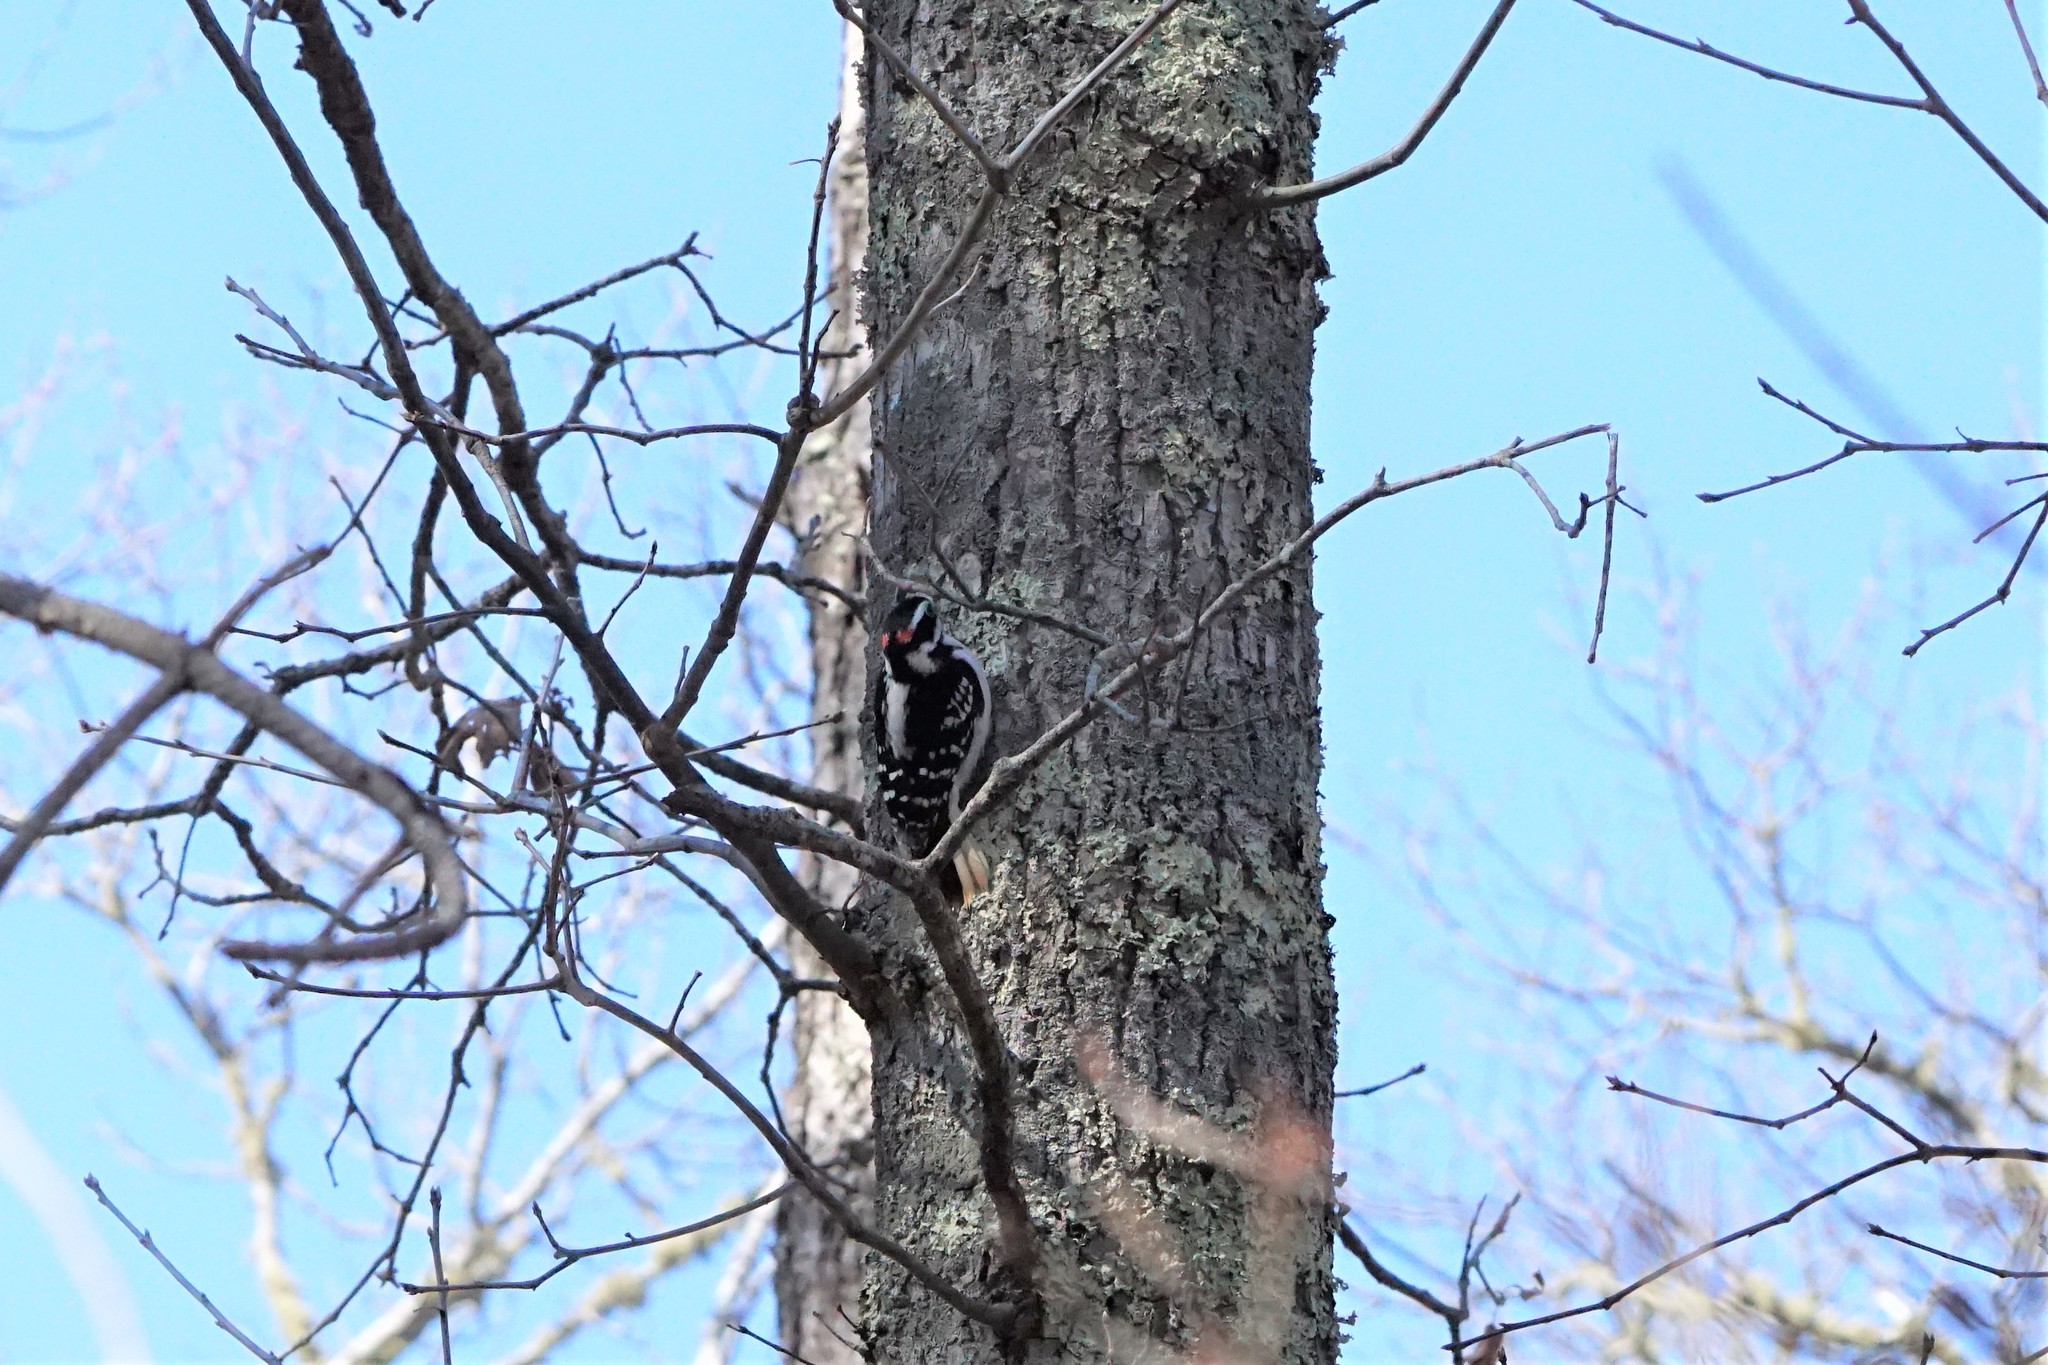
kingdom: Animalia
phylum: Chordata
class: Aves
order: Piciformes
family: Picidae
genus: Leuconotopicus
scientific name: Leuconotopicus villosus
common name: Hairy woodpecker
